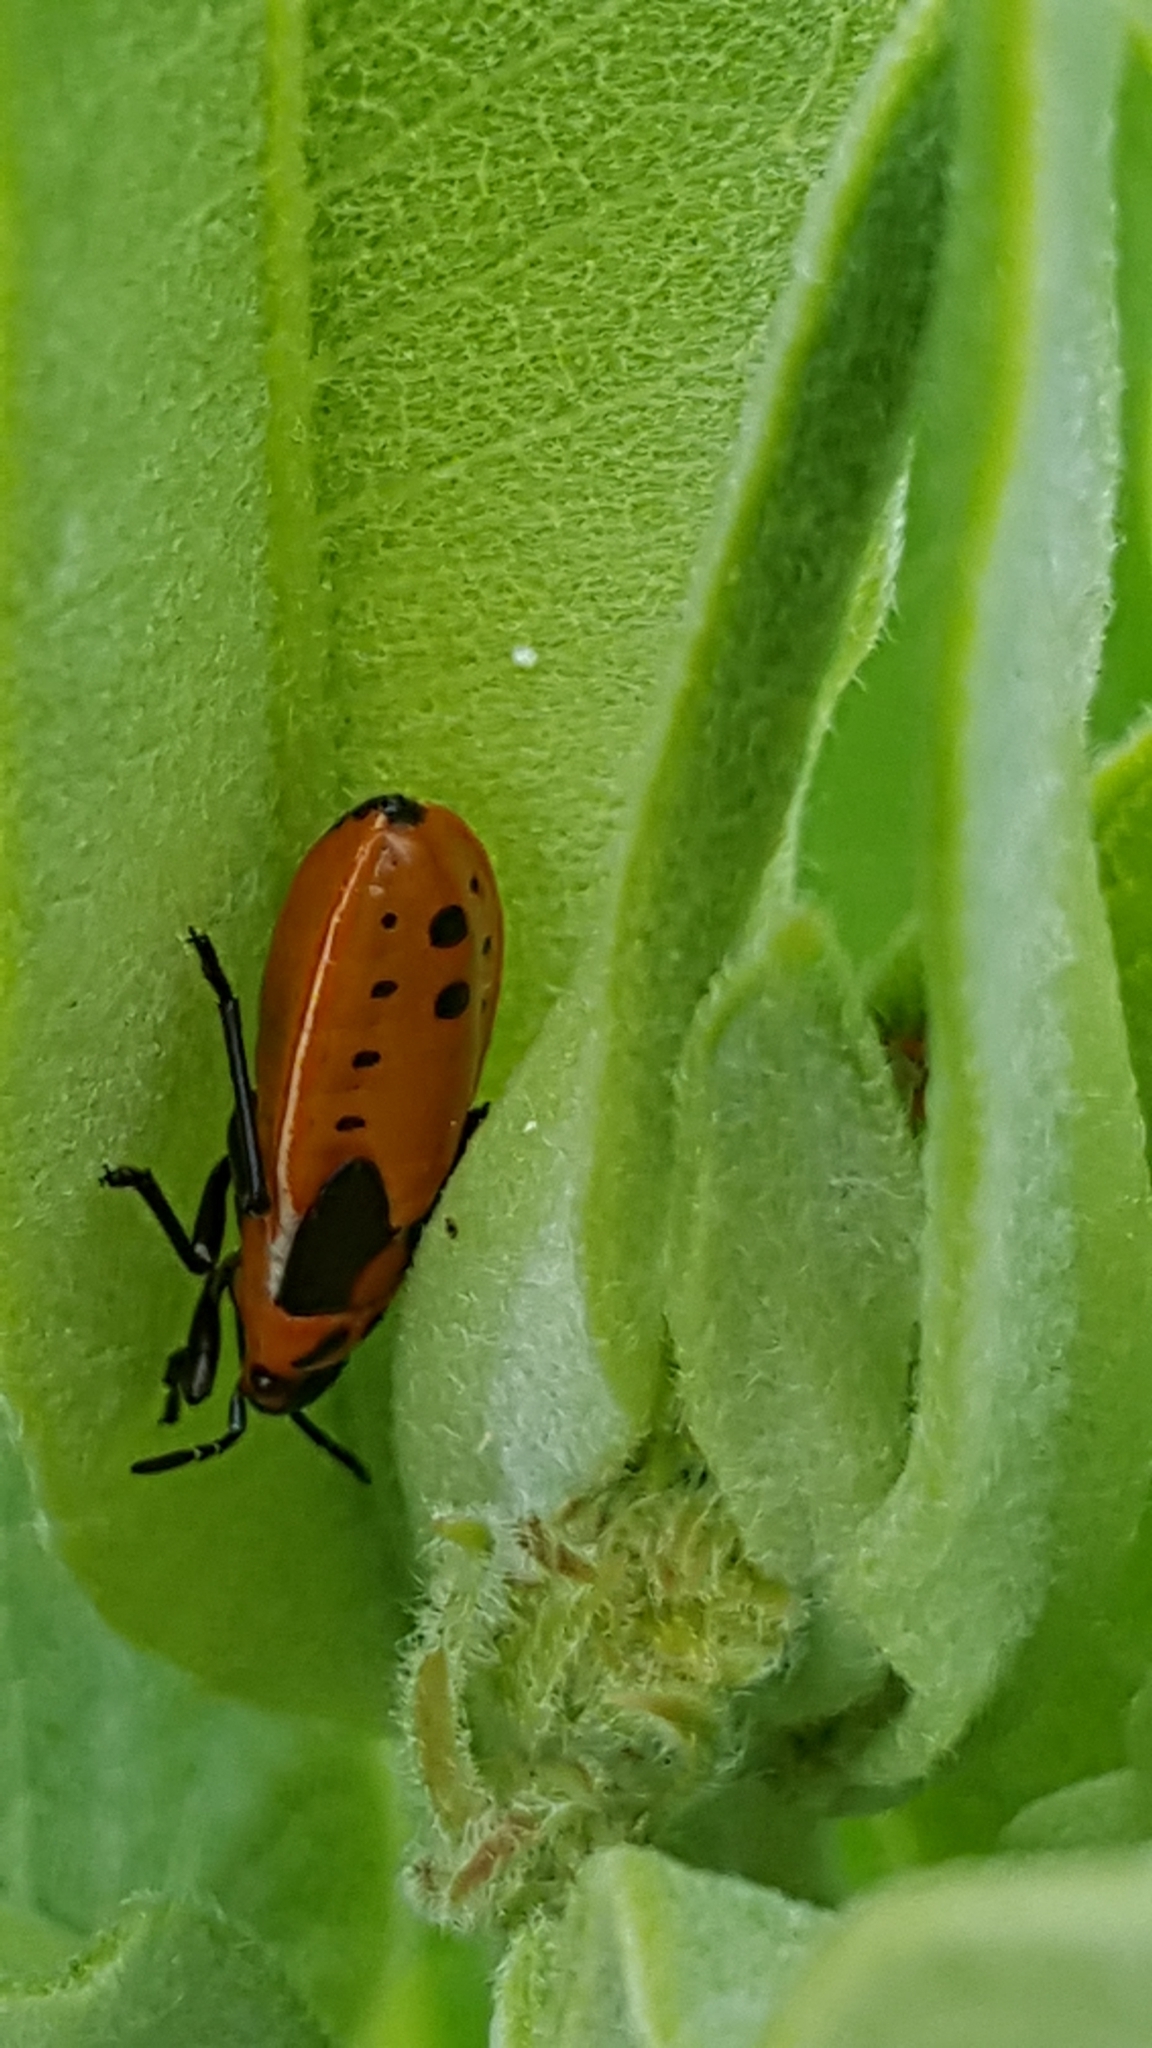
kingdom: Animalia
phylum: Arthropoda
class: Insecta
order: Hemiptera
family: Lygaeidae
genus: Lygaeus
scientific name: Lygaeus kalmii
